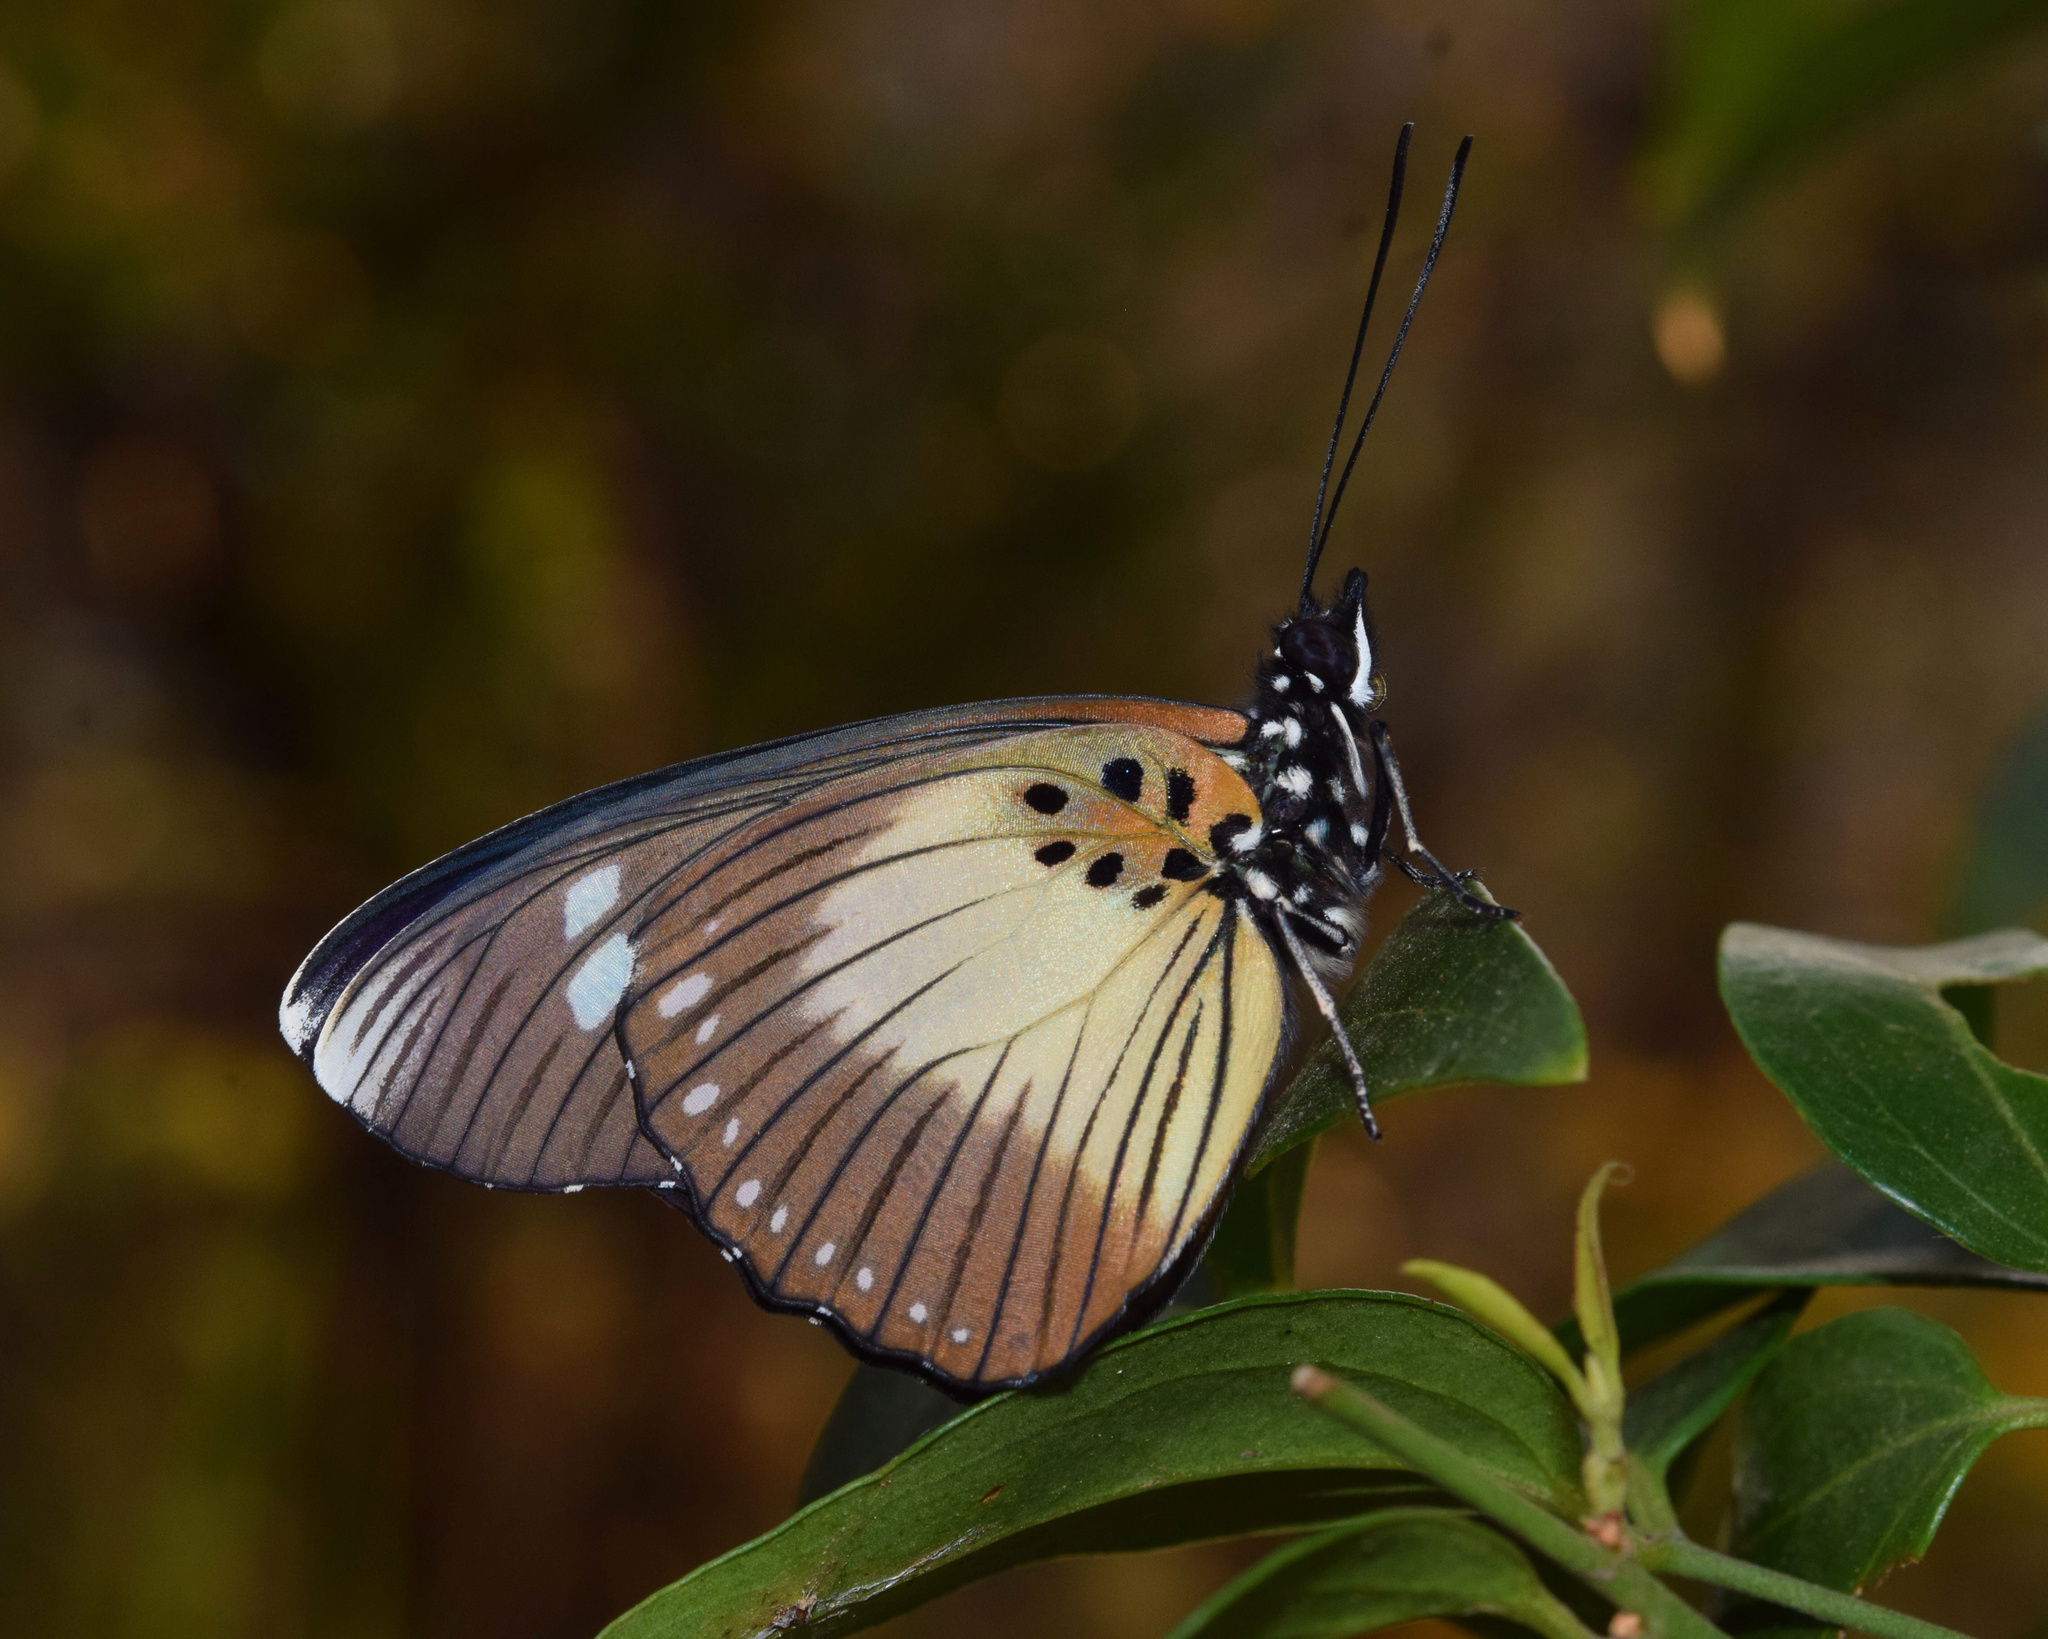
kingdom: Animalia
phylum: Arthropoda
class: Insecta
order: Lepidoptera
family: Nymphalidae
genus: Chloropoea
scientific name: Chloropoea lucretia
